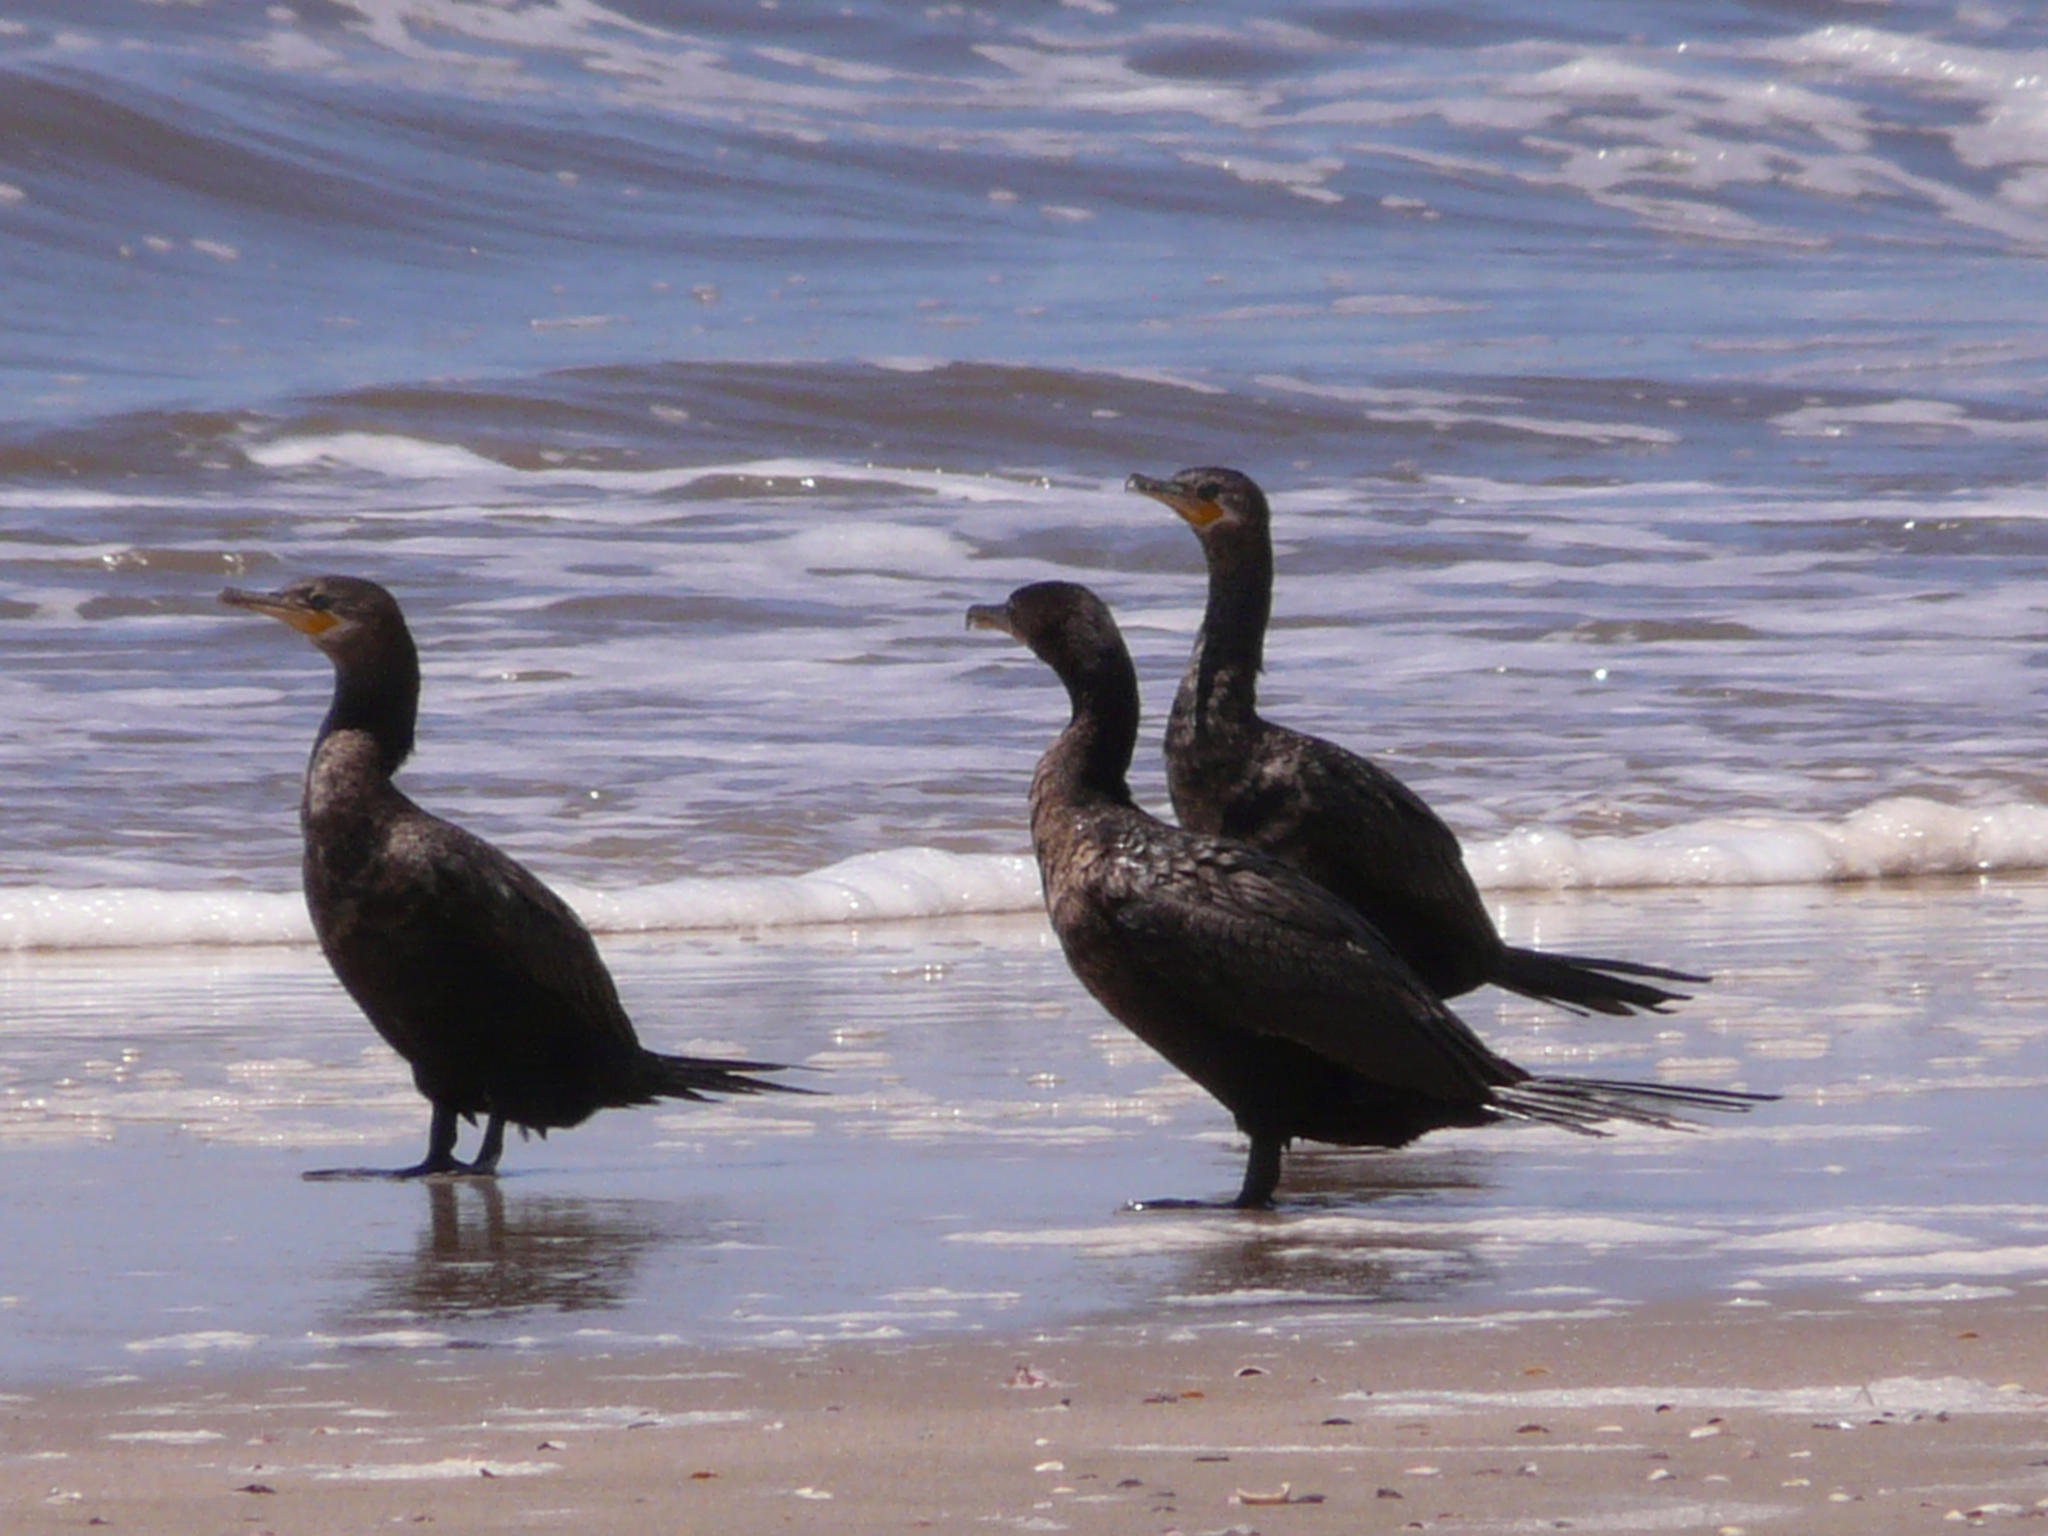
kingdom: Animalia
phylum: Chordata
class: Aves
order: Suliformes
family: Phalacrocoracidae
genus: Phalacrocorax
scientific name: Phalacrocorax brasilianus
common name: Neotropic cormorant
